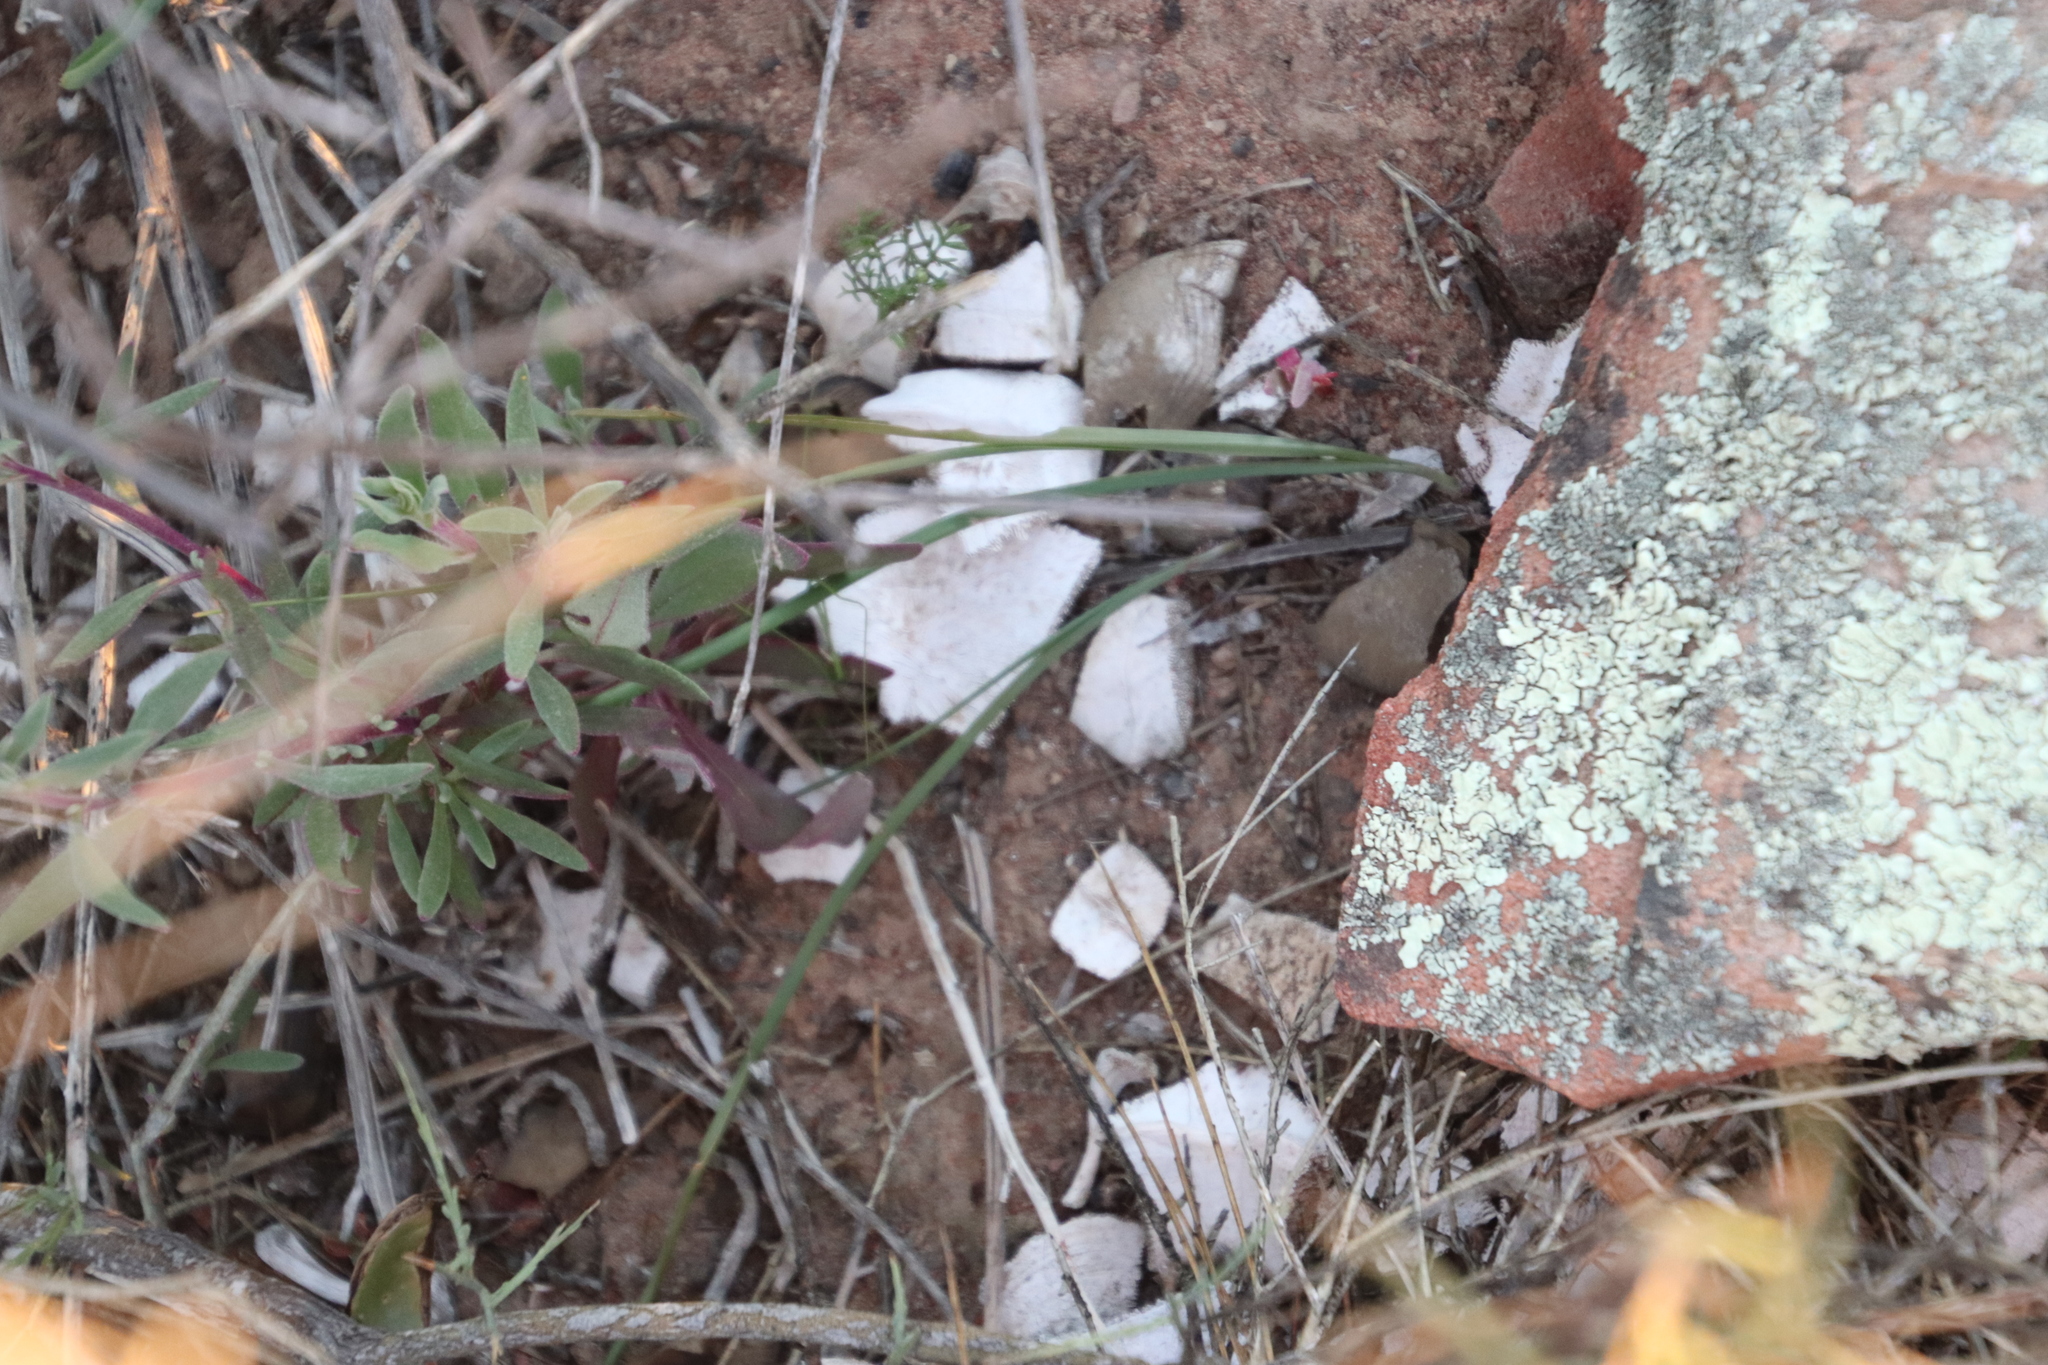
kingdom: Animalia
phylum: Chordata
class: Testudines
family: Testudinidae
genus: Chersina
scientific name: Chersina angulata
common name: South african bowsprit tortoise
